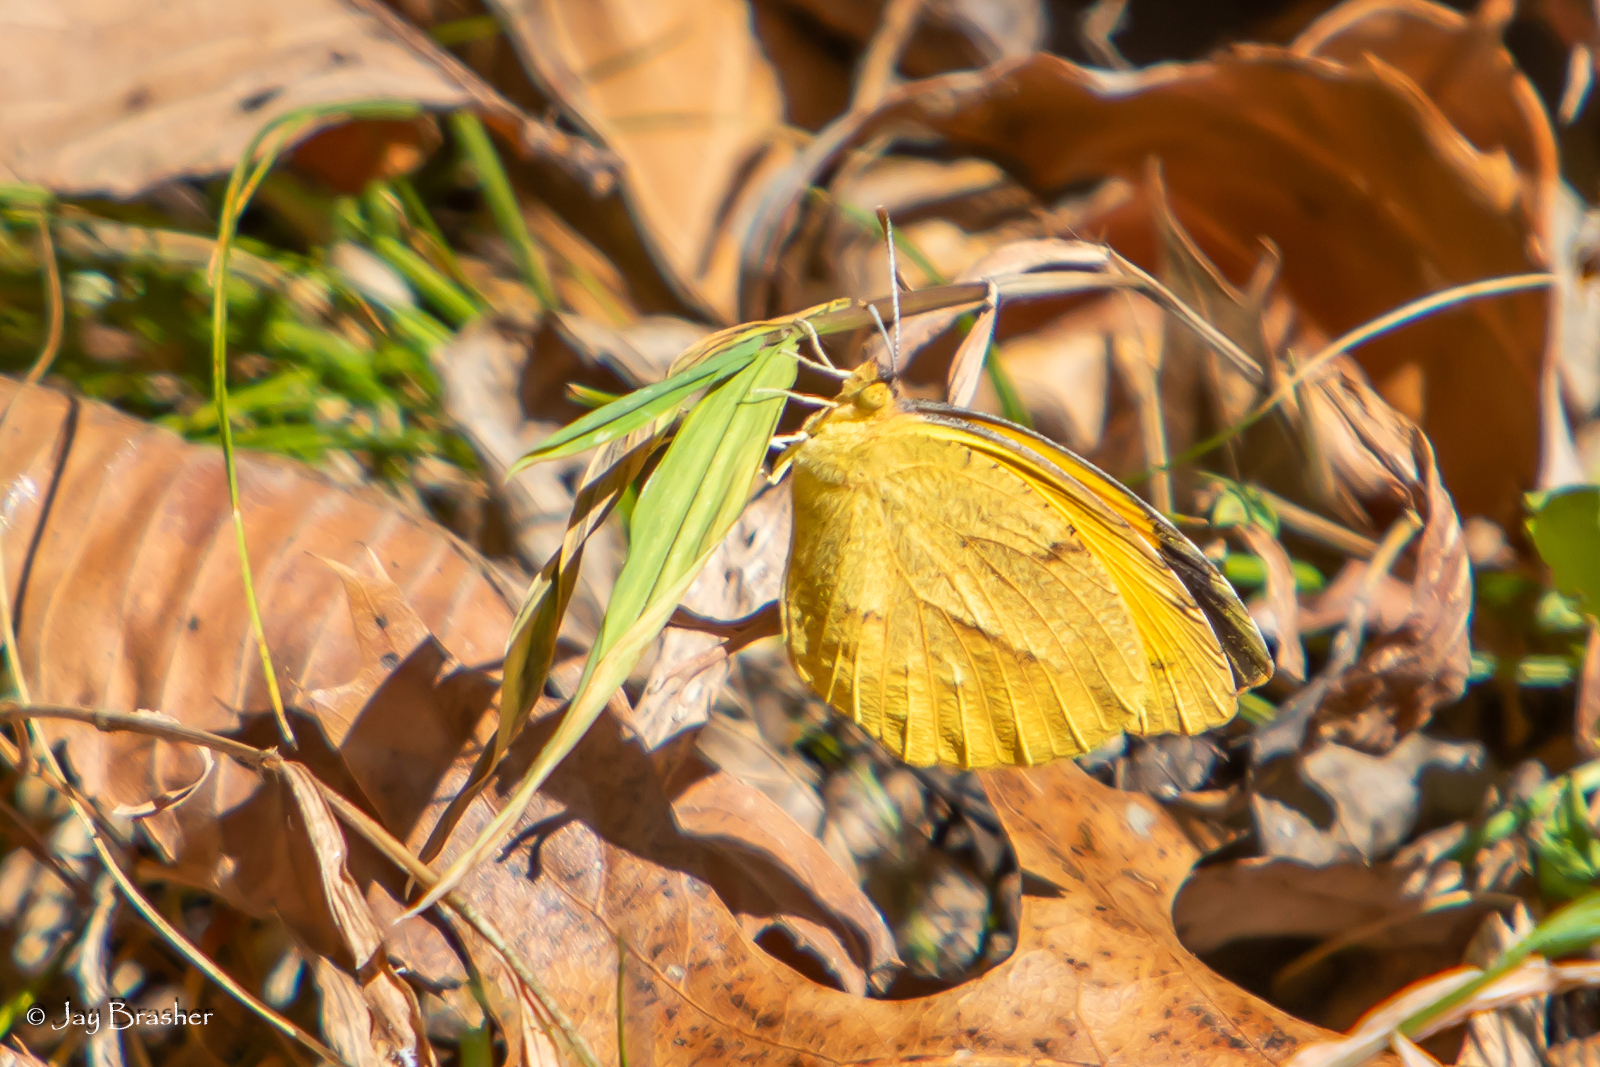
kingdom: Animalia
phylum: Arthropoda
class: Insecta
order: Lepidoptera
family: Pieridae
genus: Abaeis
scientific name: Abaeis nicippe
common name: Sleepy orange
